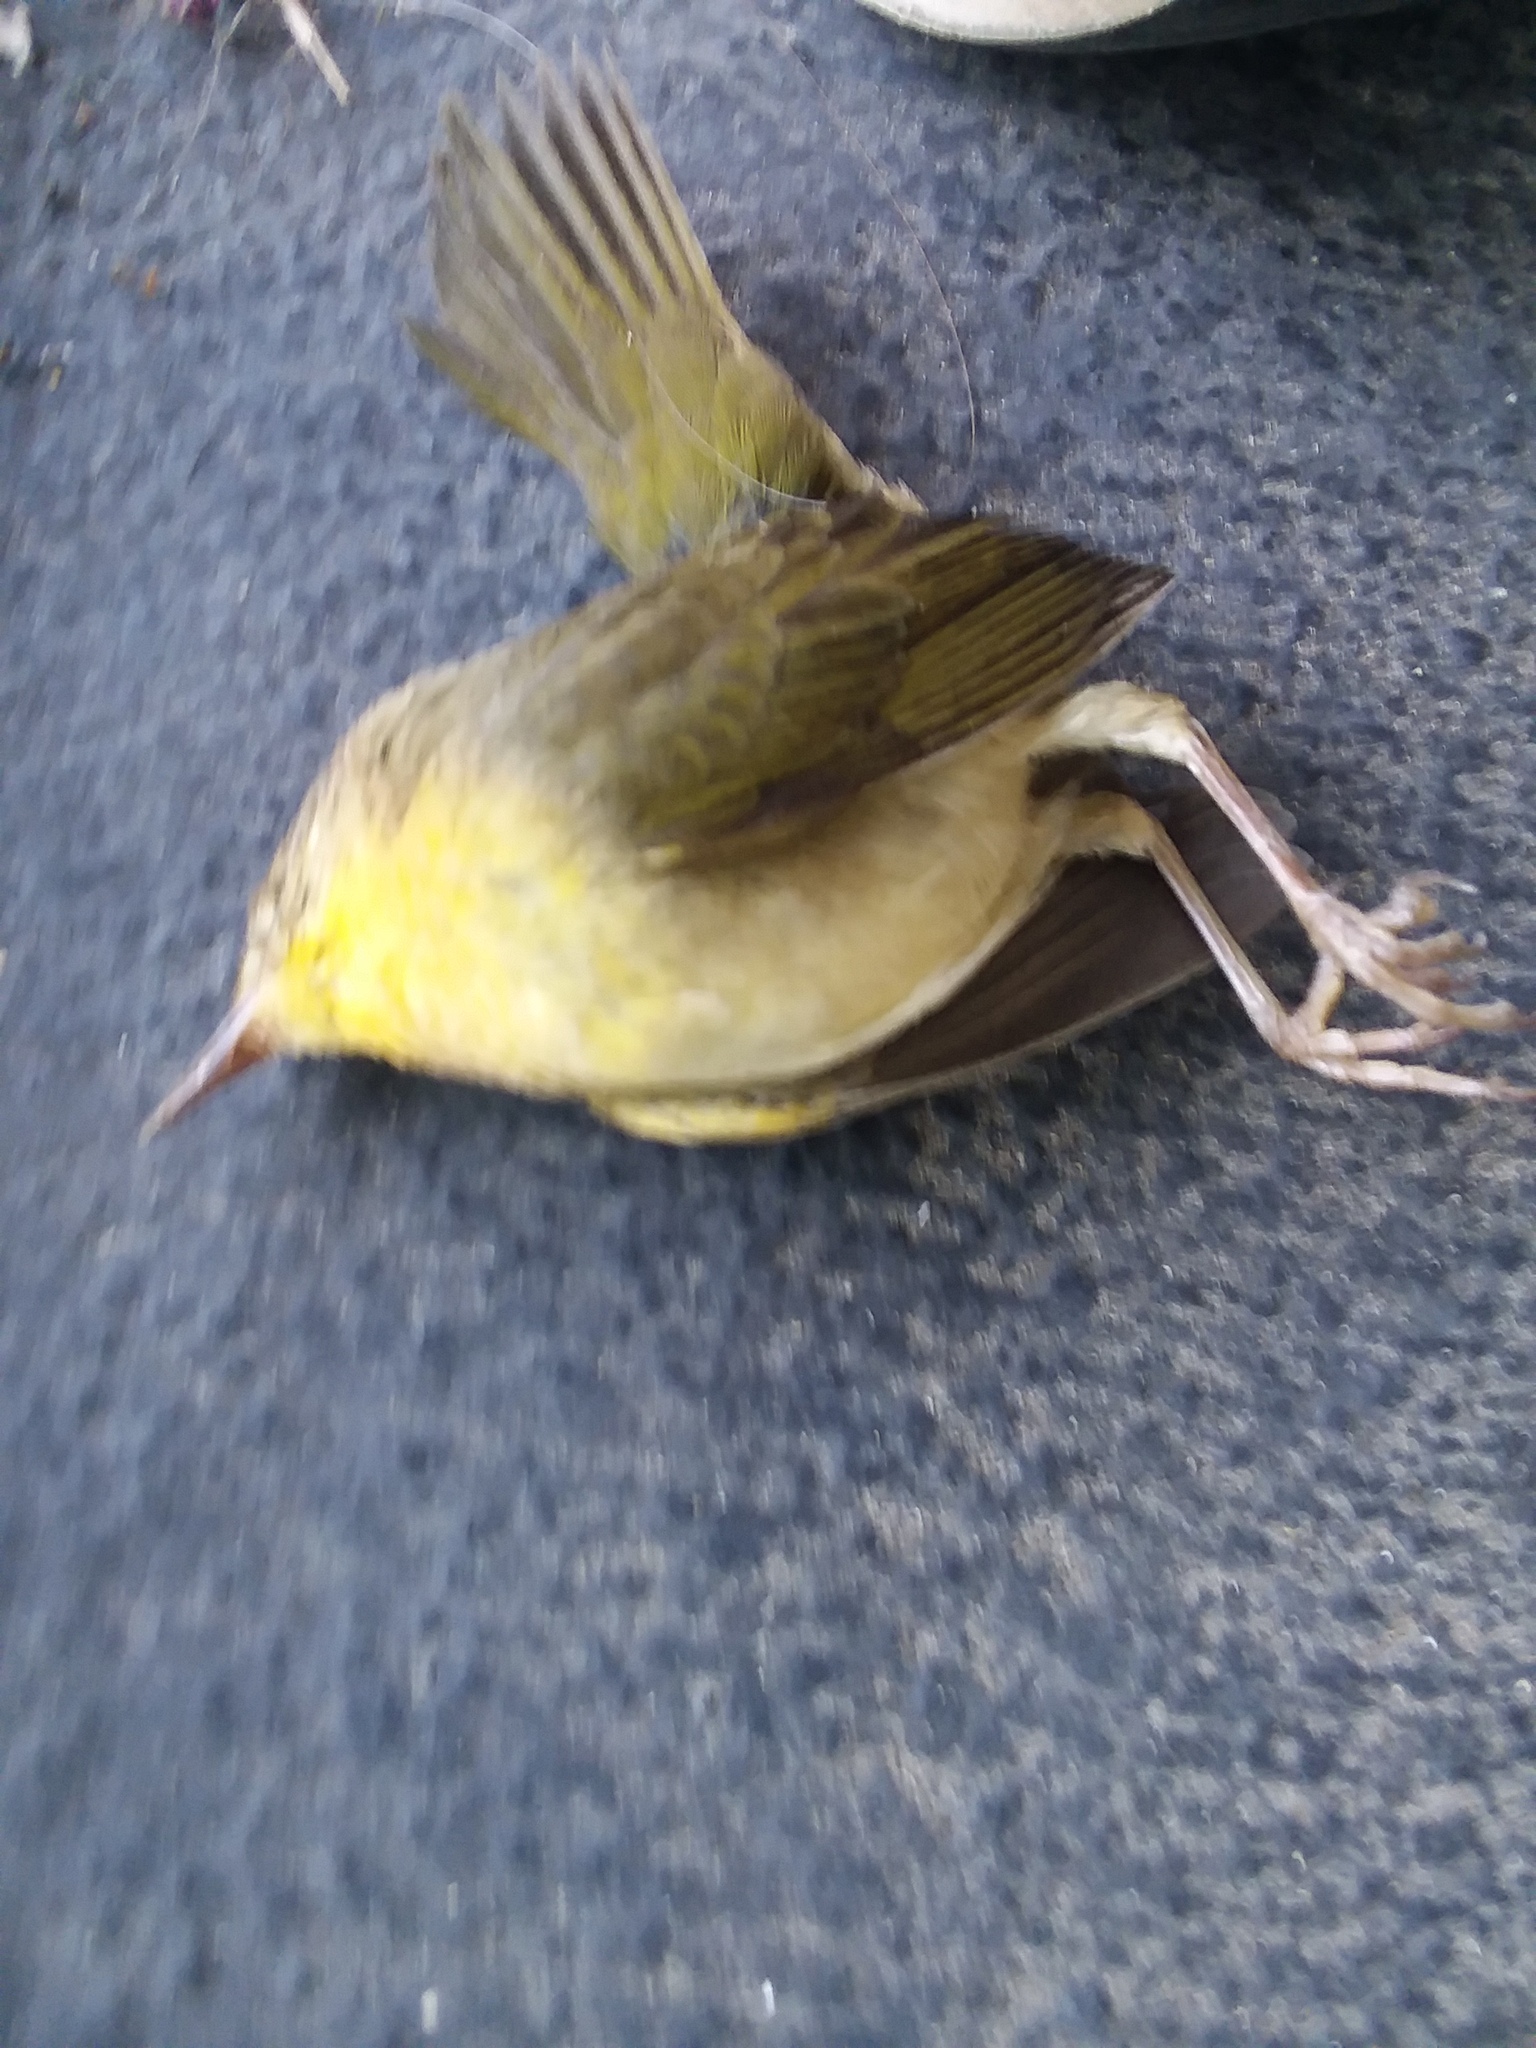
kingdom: Animalia
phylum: Chordata
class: Aves
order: Passeriformes
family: Parulidae
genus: Geothlypis
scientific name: Geothlypis trichas
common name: Common yellowthroat
